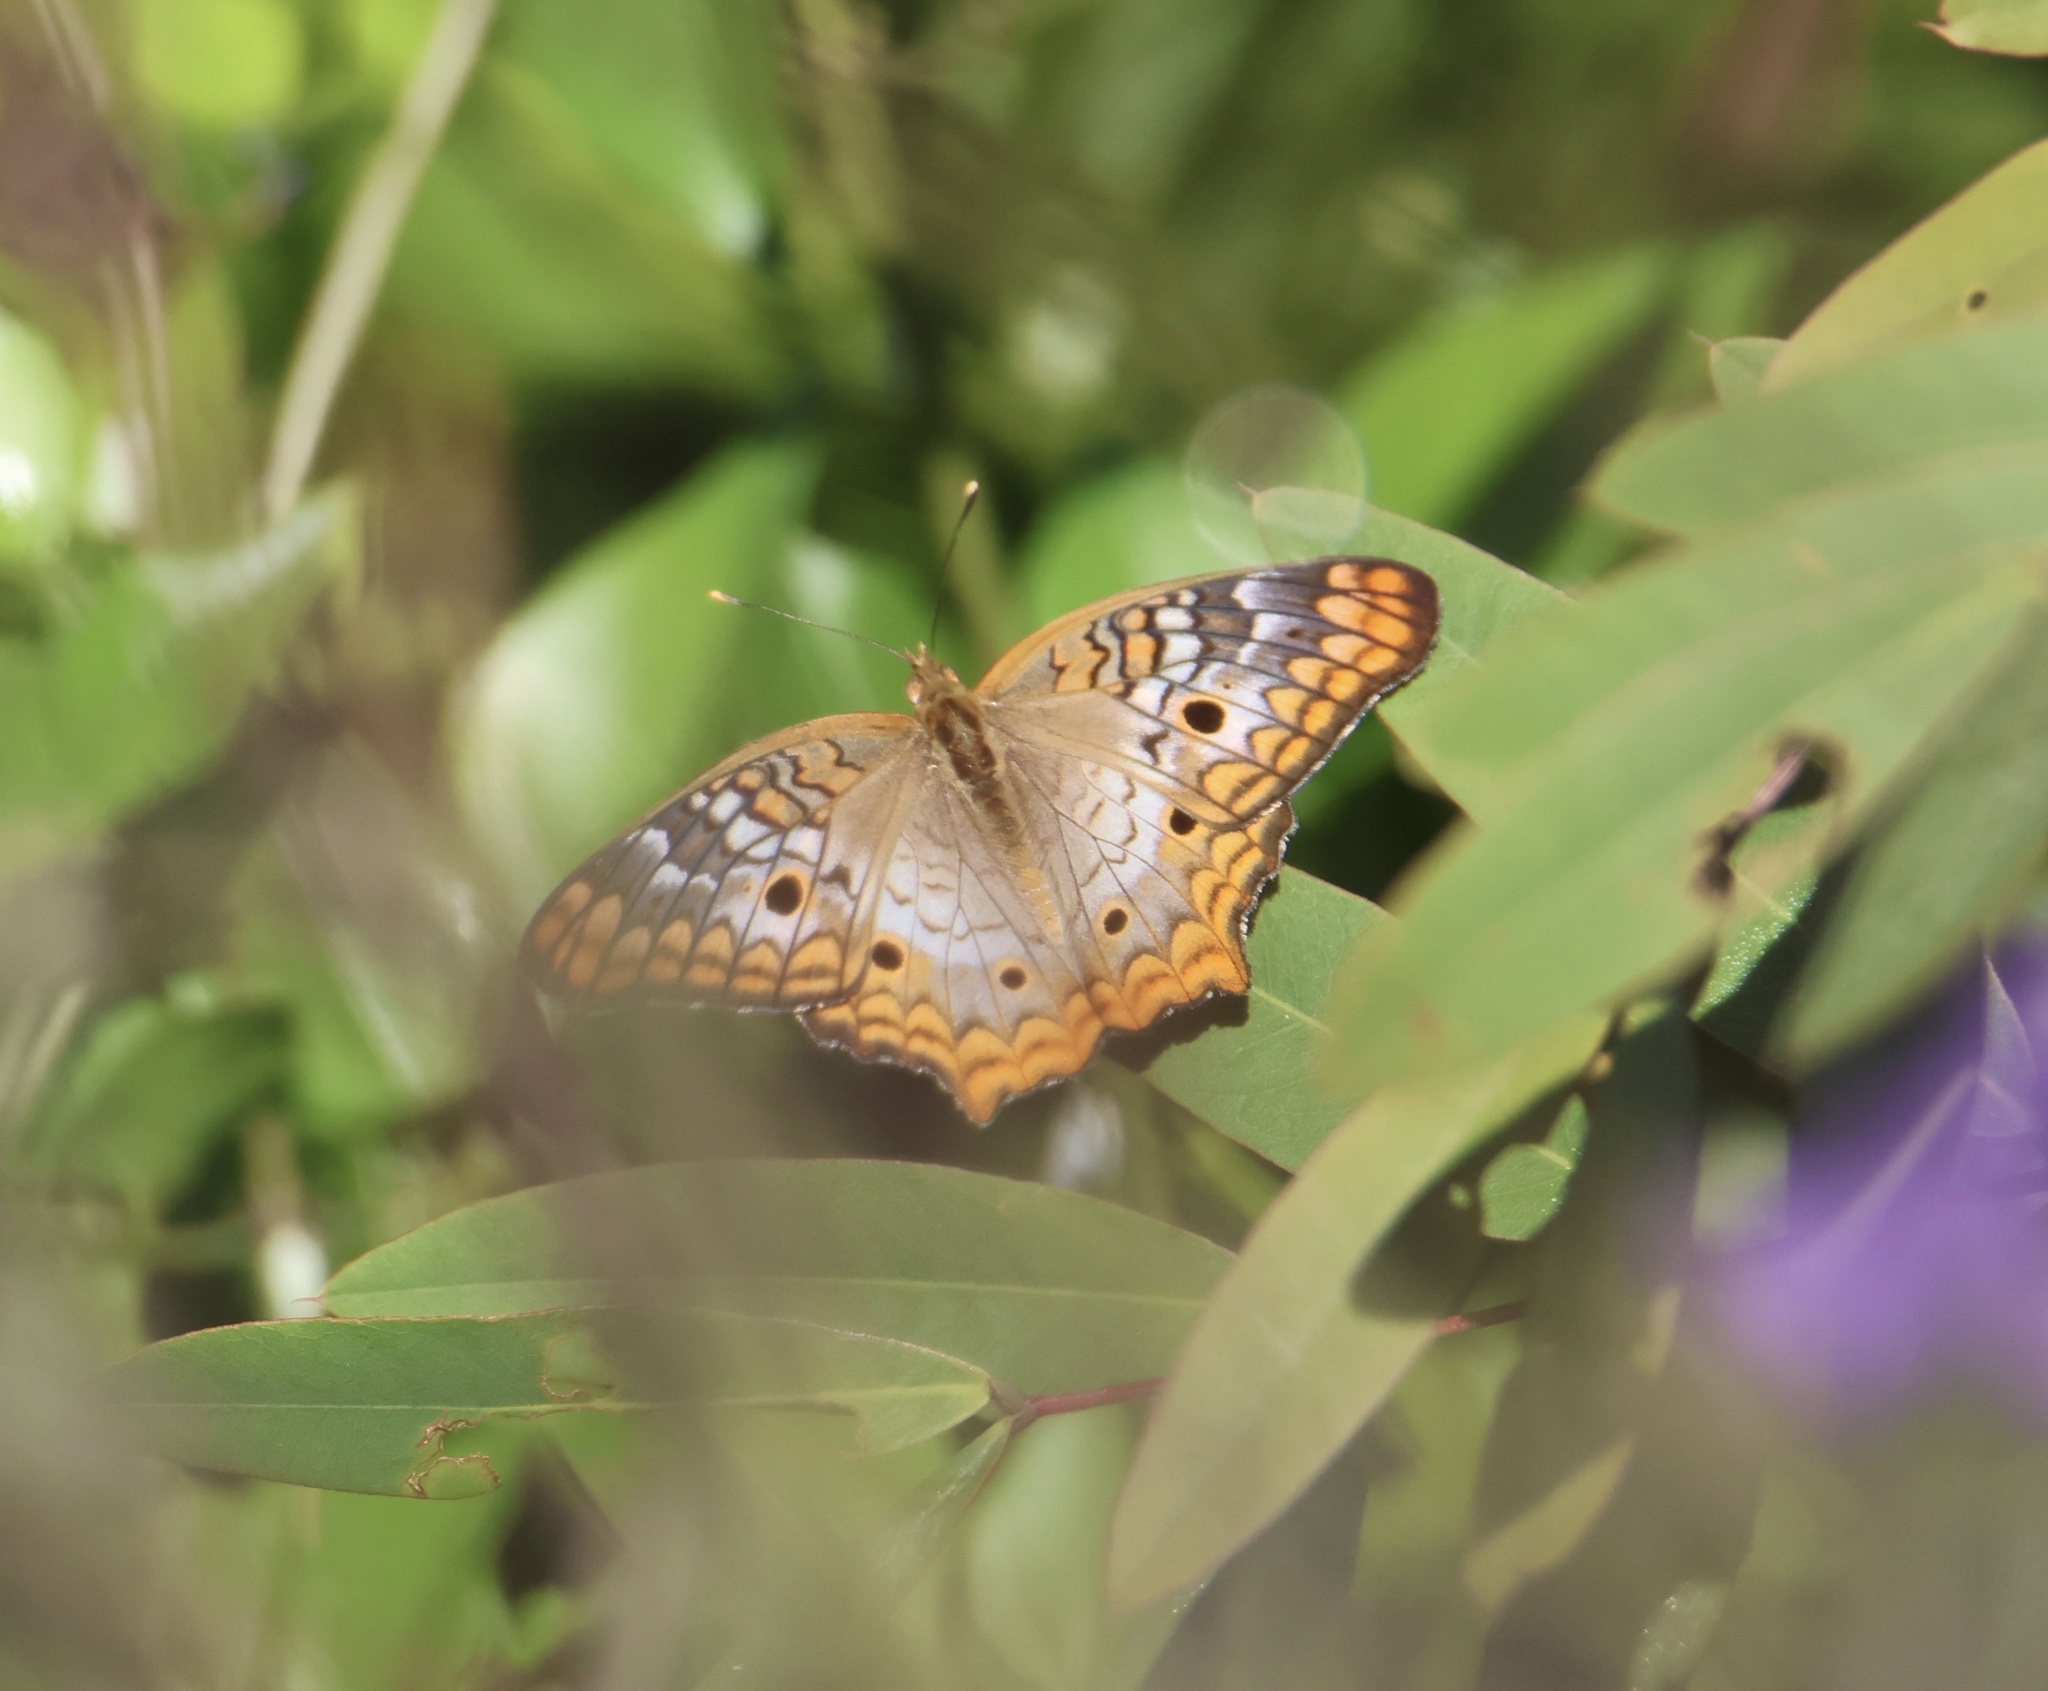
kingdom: Animalia
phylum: Arthropoda
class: Insecta
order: Lepidoptera
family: Nymphalidae
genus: Anartia
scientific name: Anartia jatrophae
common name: White peacock
